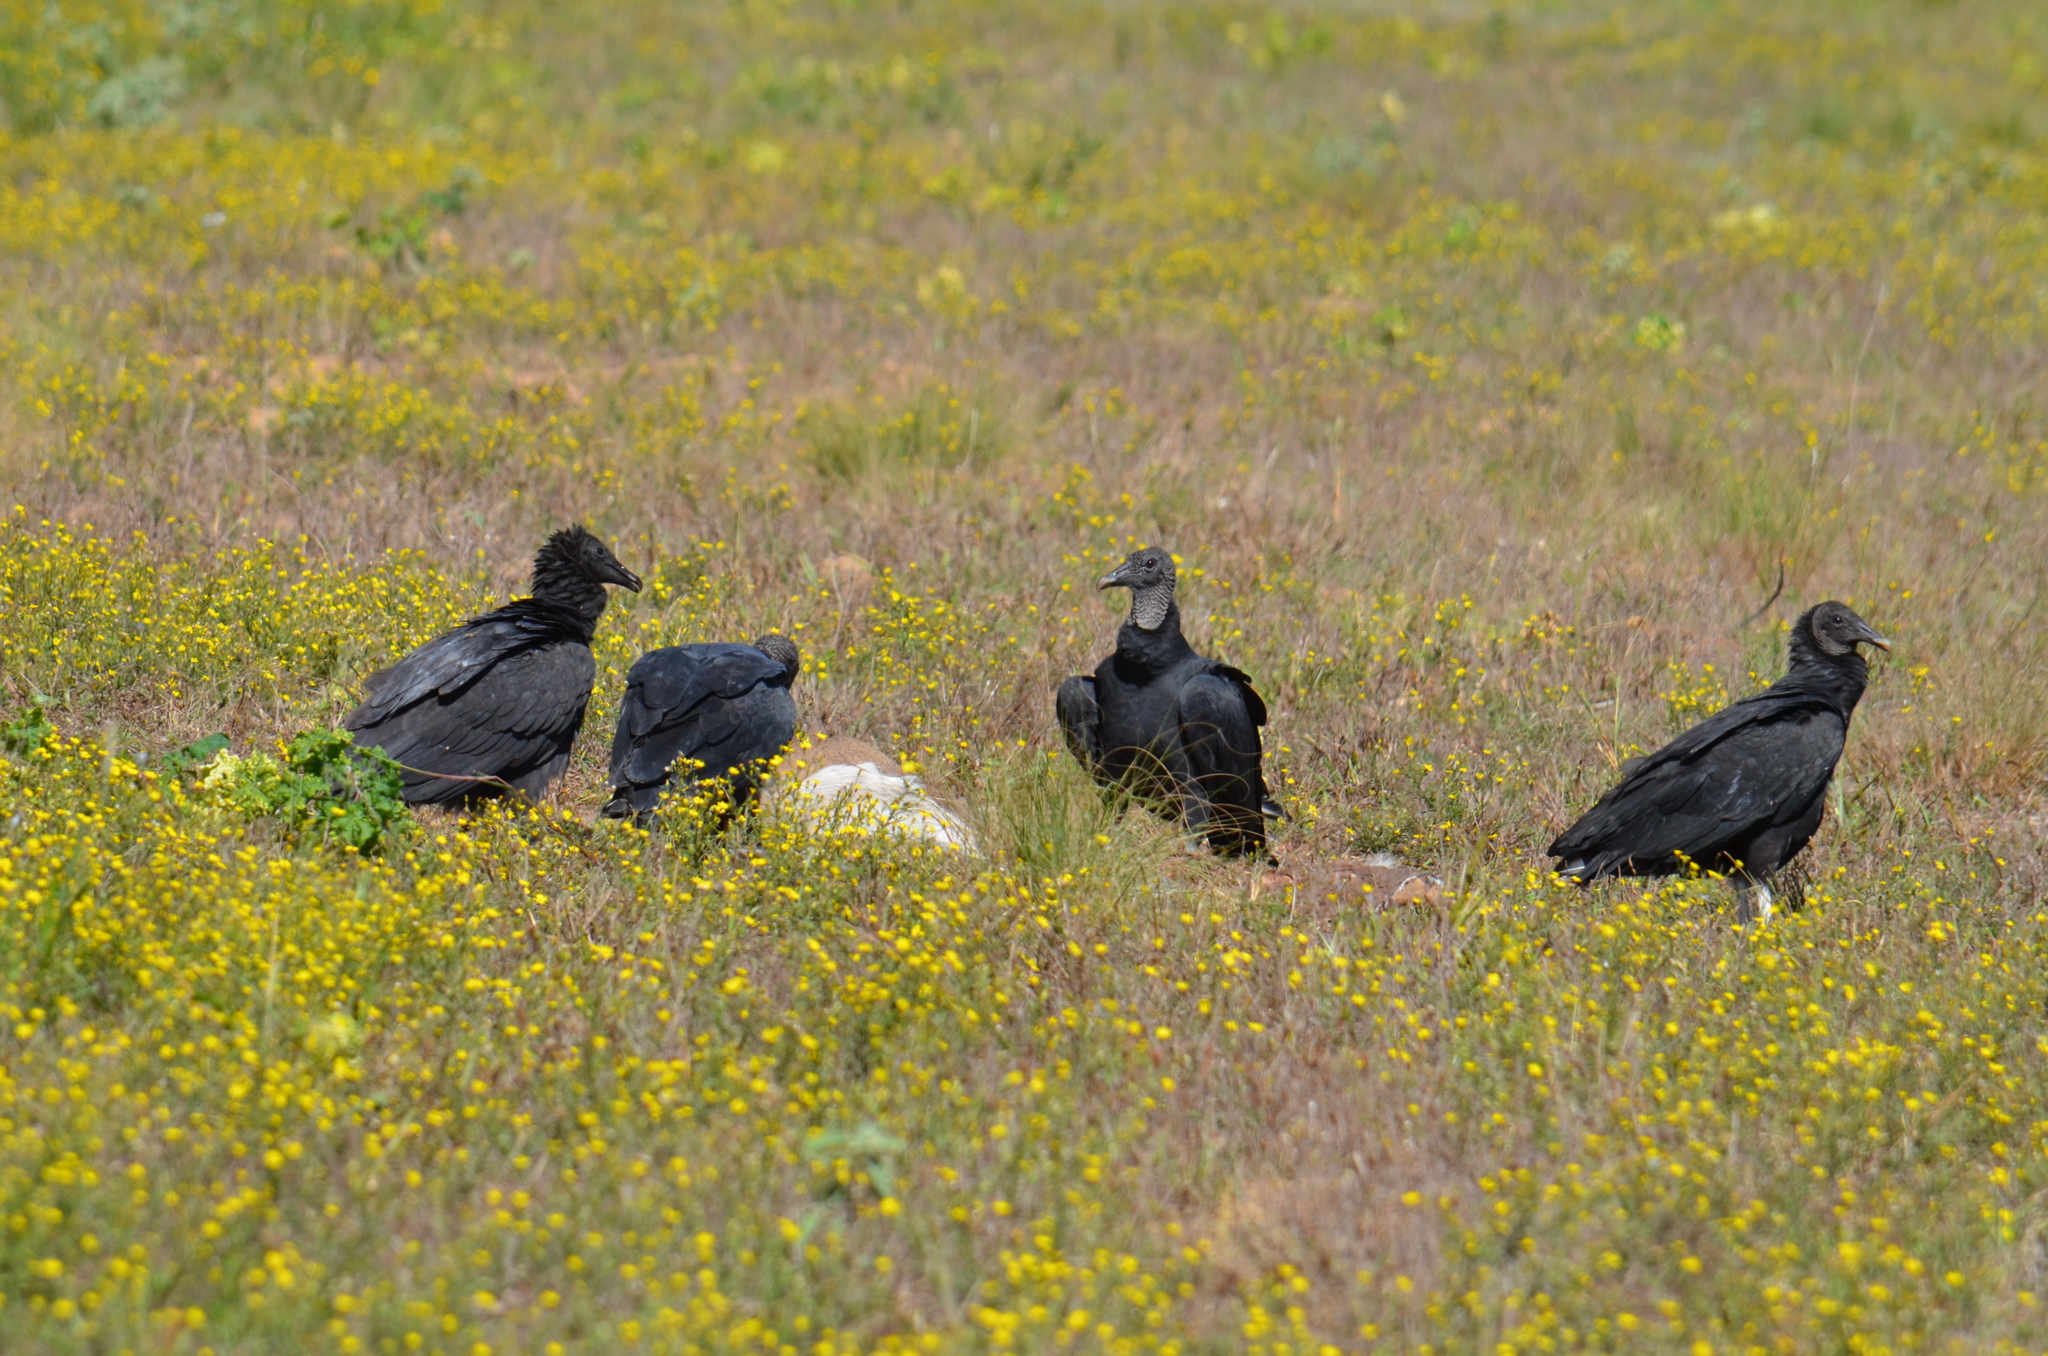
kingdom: Animalia
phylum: Chordata
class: Aves
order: Accipitriformes
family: Cathartidae
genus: Coragyps
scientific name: Coragyps atratus
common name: Black vulture
